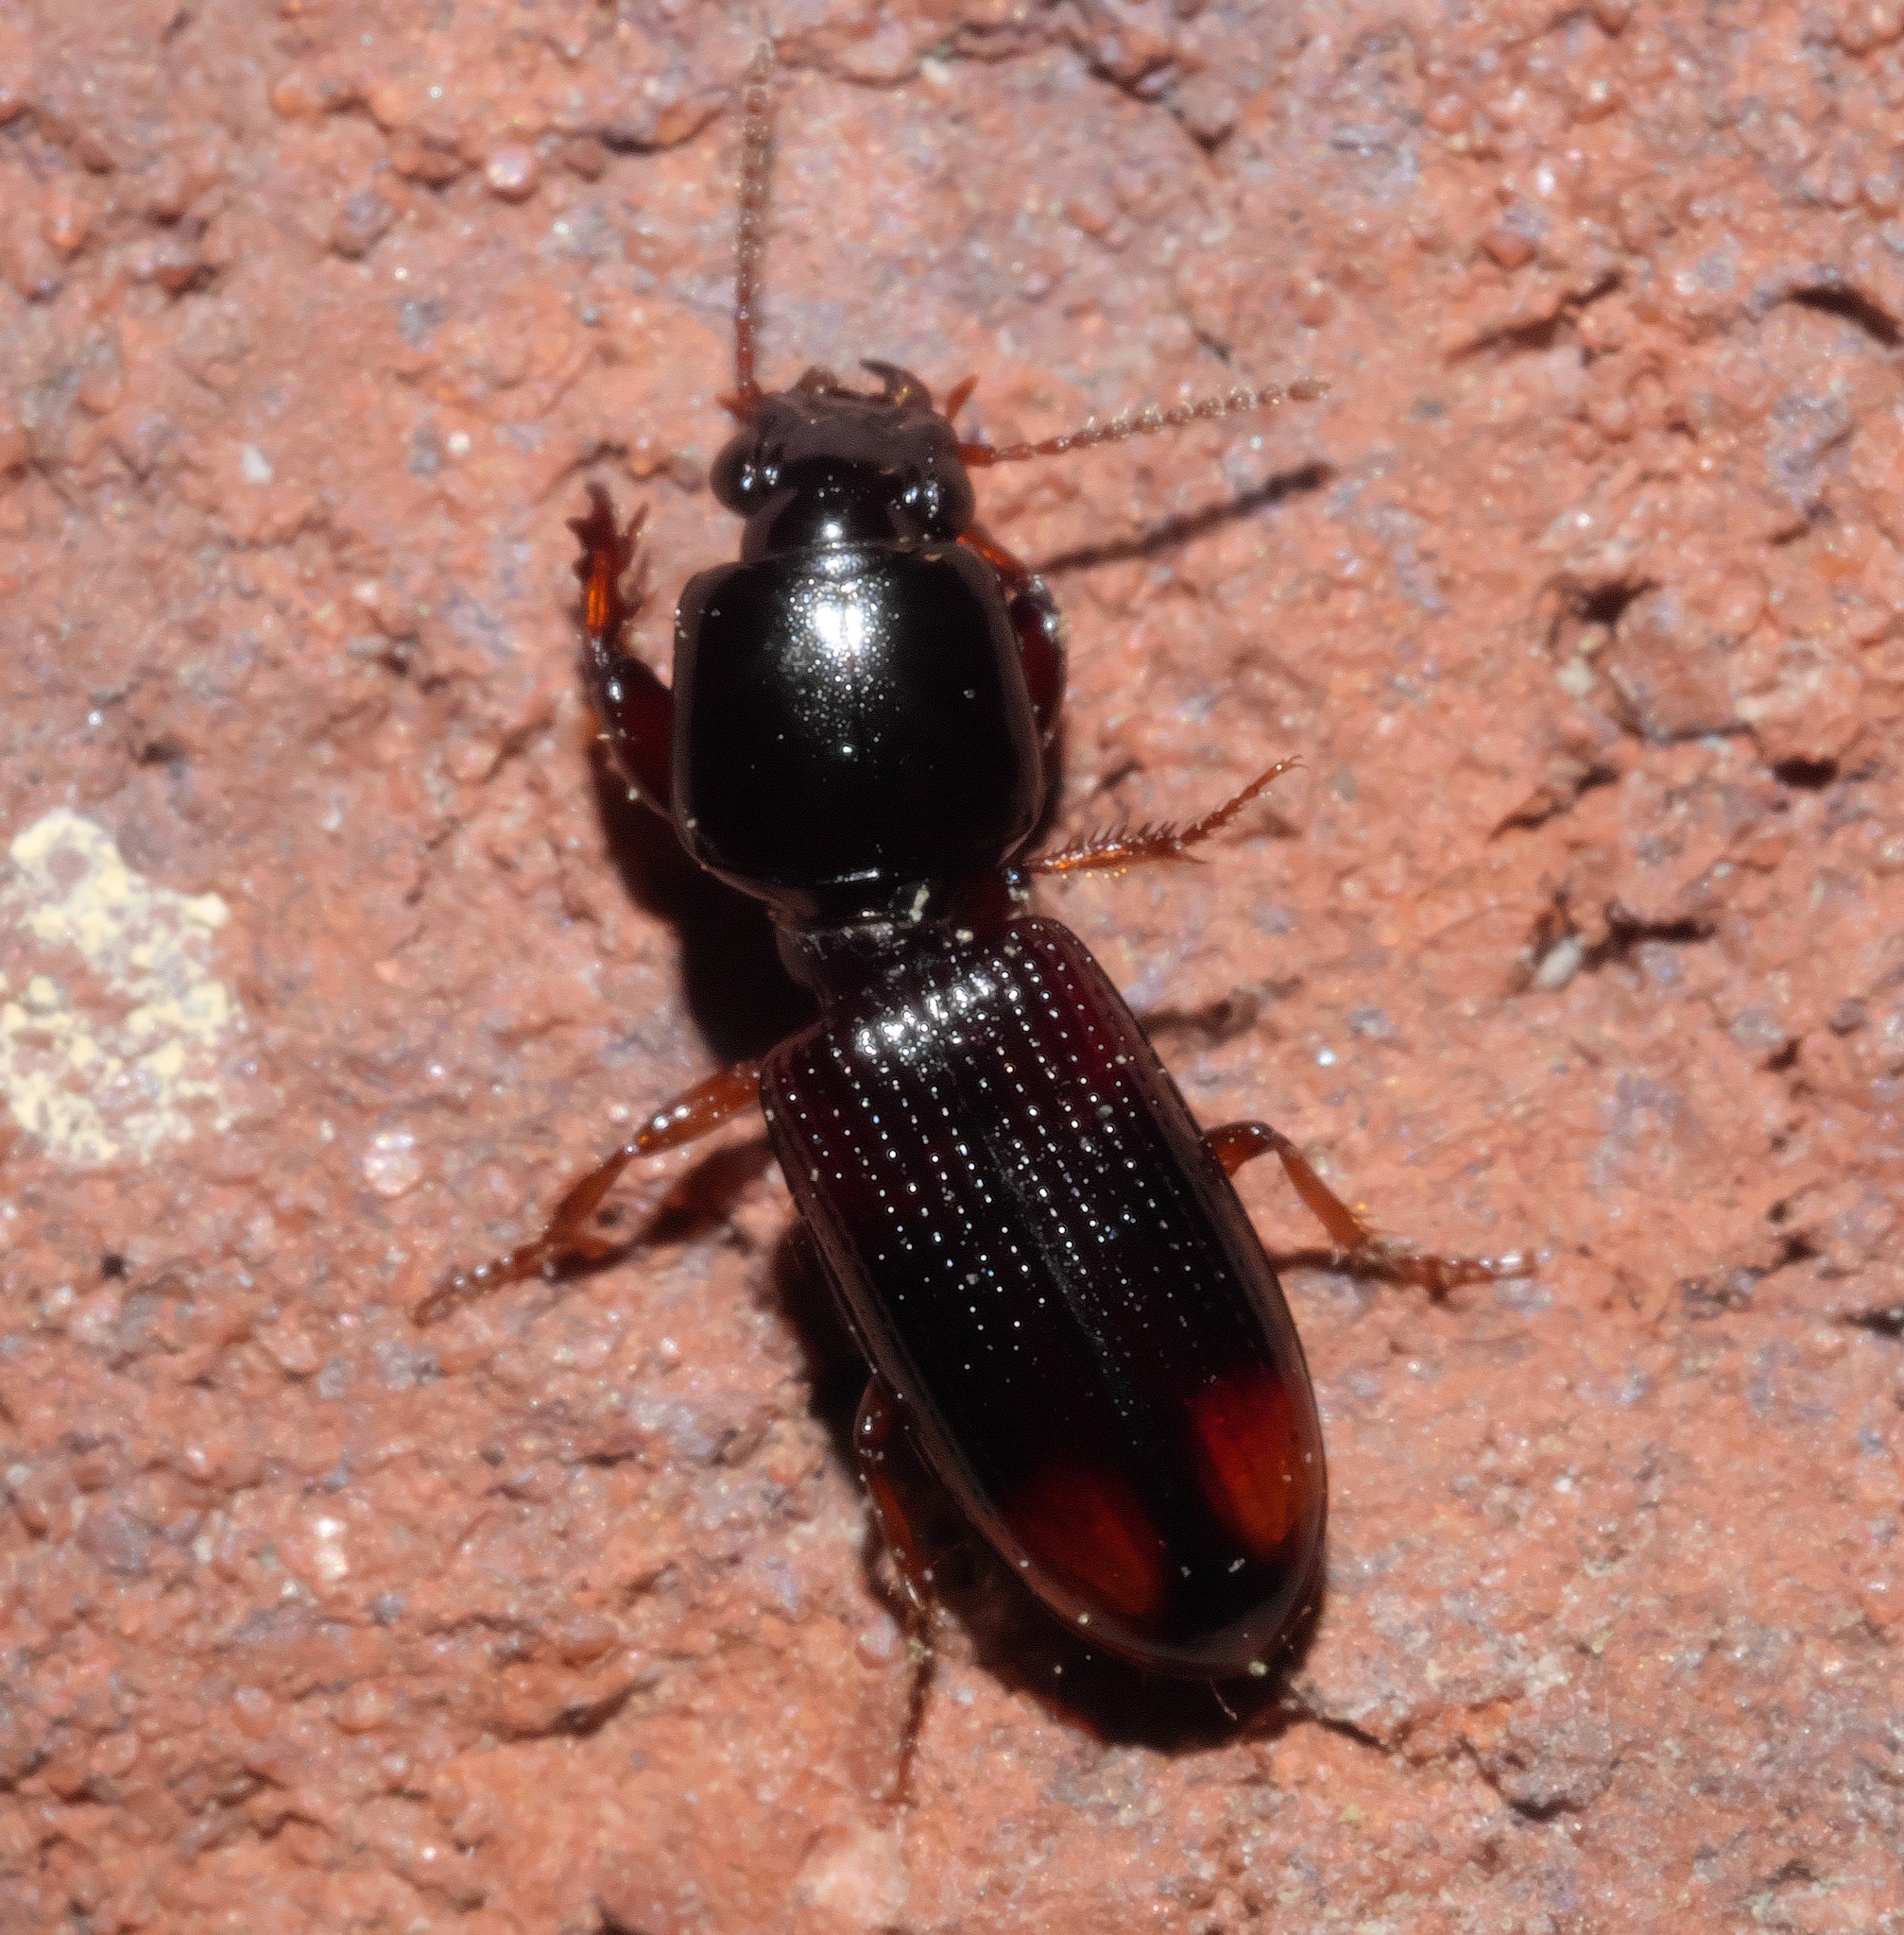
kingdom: Animalia
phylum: Arthropoda
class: Insecta
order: Coleoptera
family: Carabidae
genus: Clivina
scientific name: Clivina bipustulata
